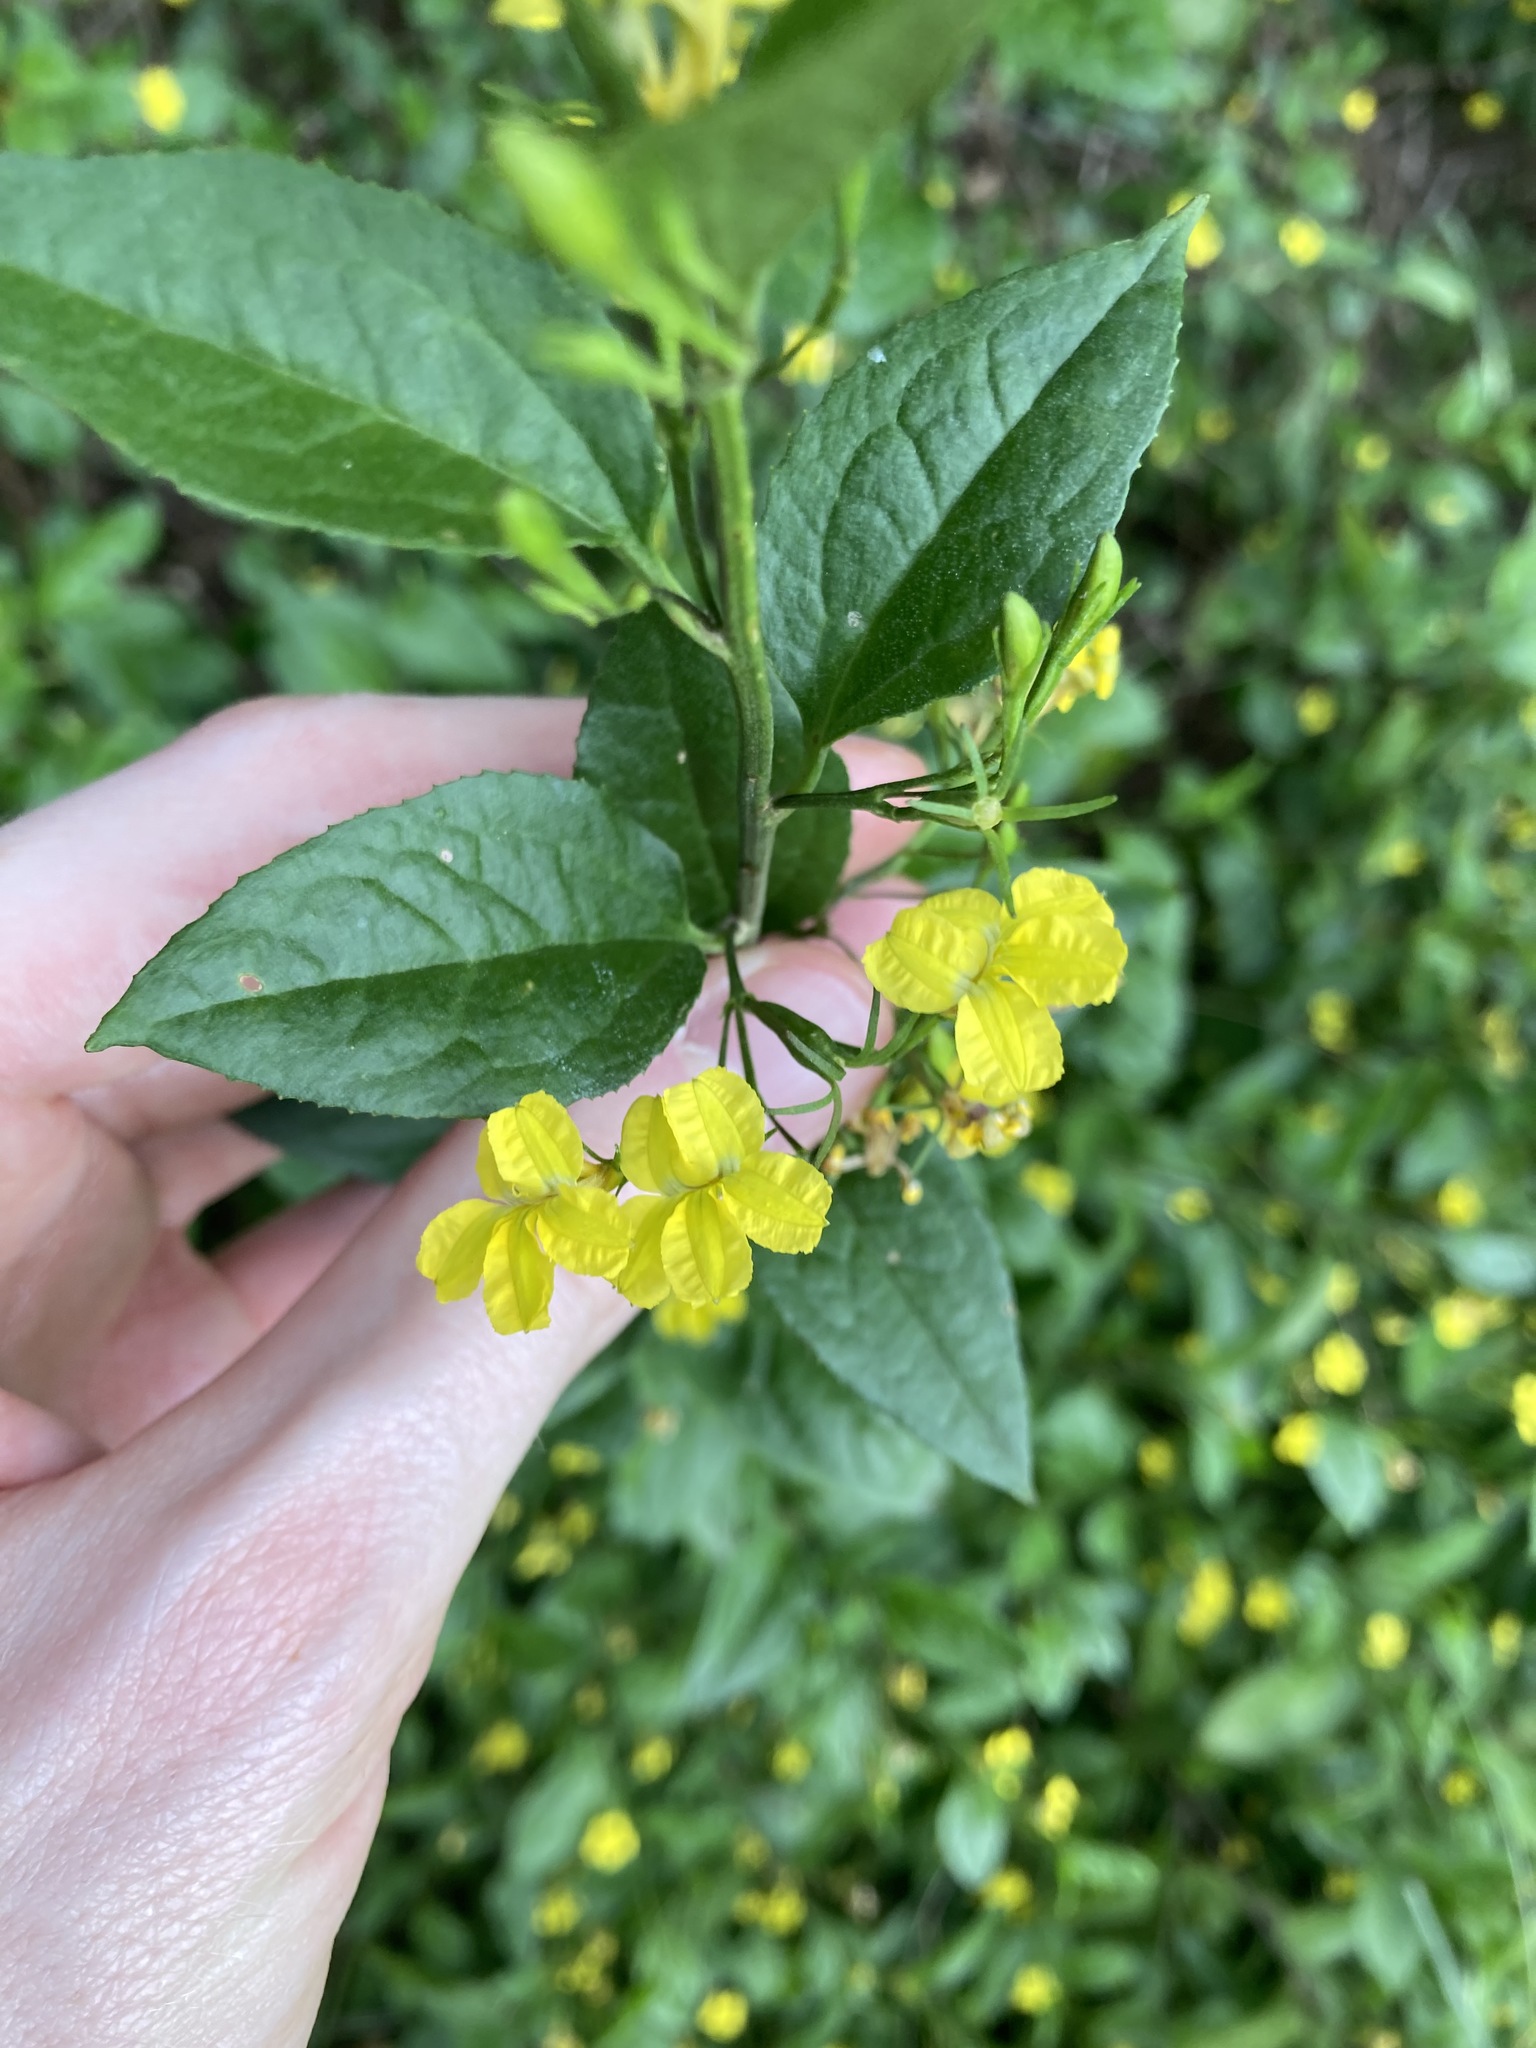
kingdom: Plantae
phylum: Tracheophyta
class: Magnoliopsida
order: Asterales
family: Goodeniaceae
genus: Goodenia
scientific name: Goodenia ovata
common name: Hop goodenia
